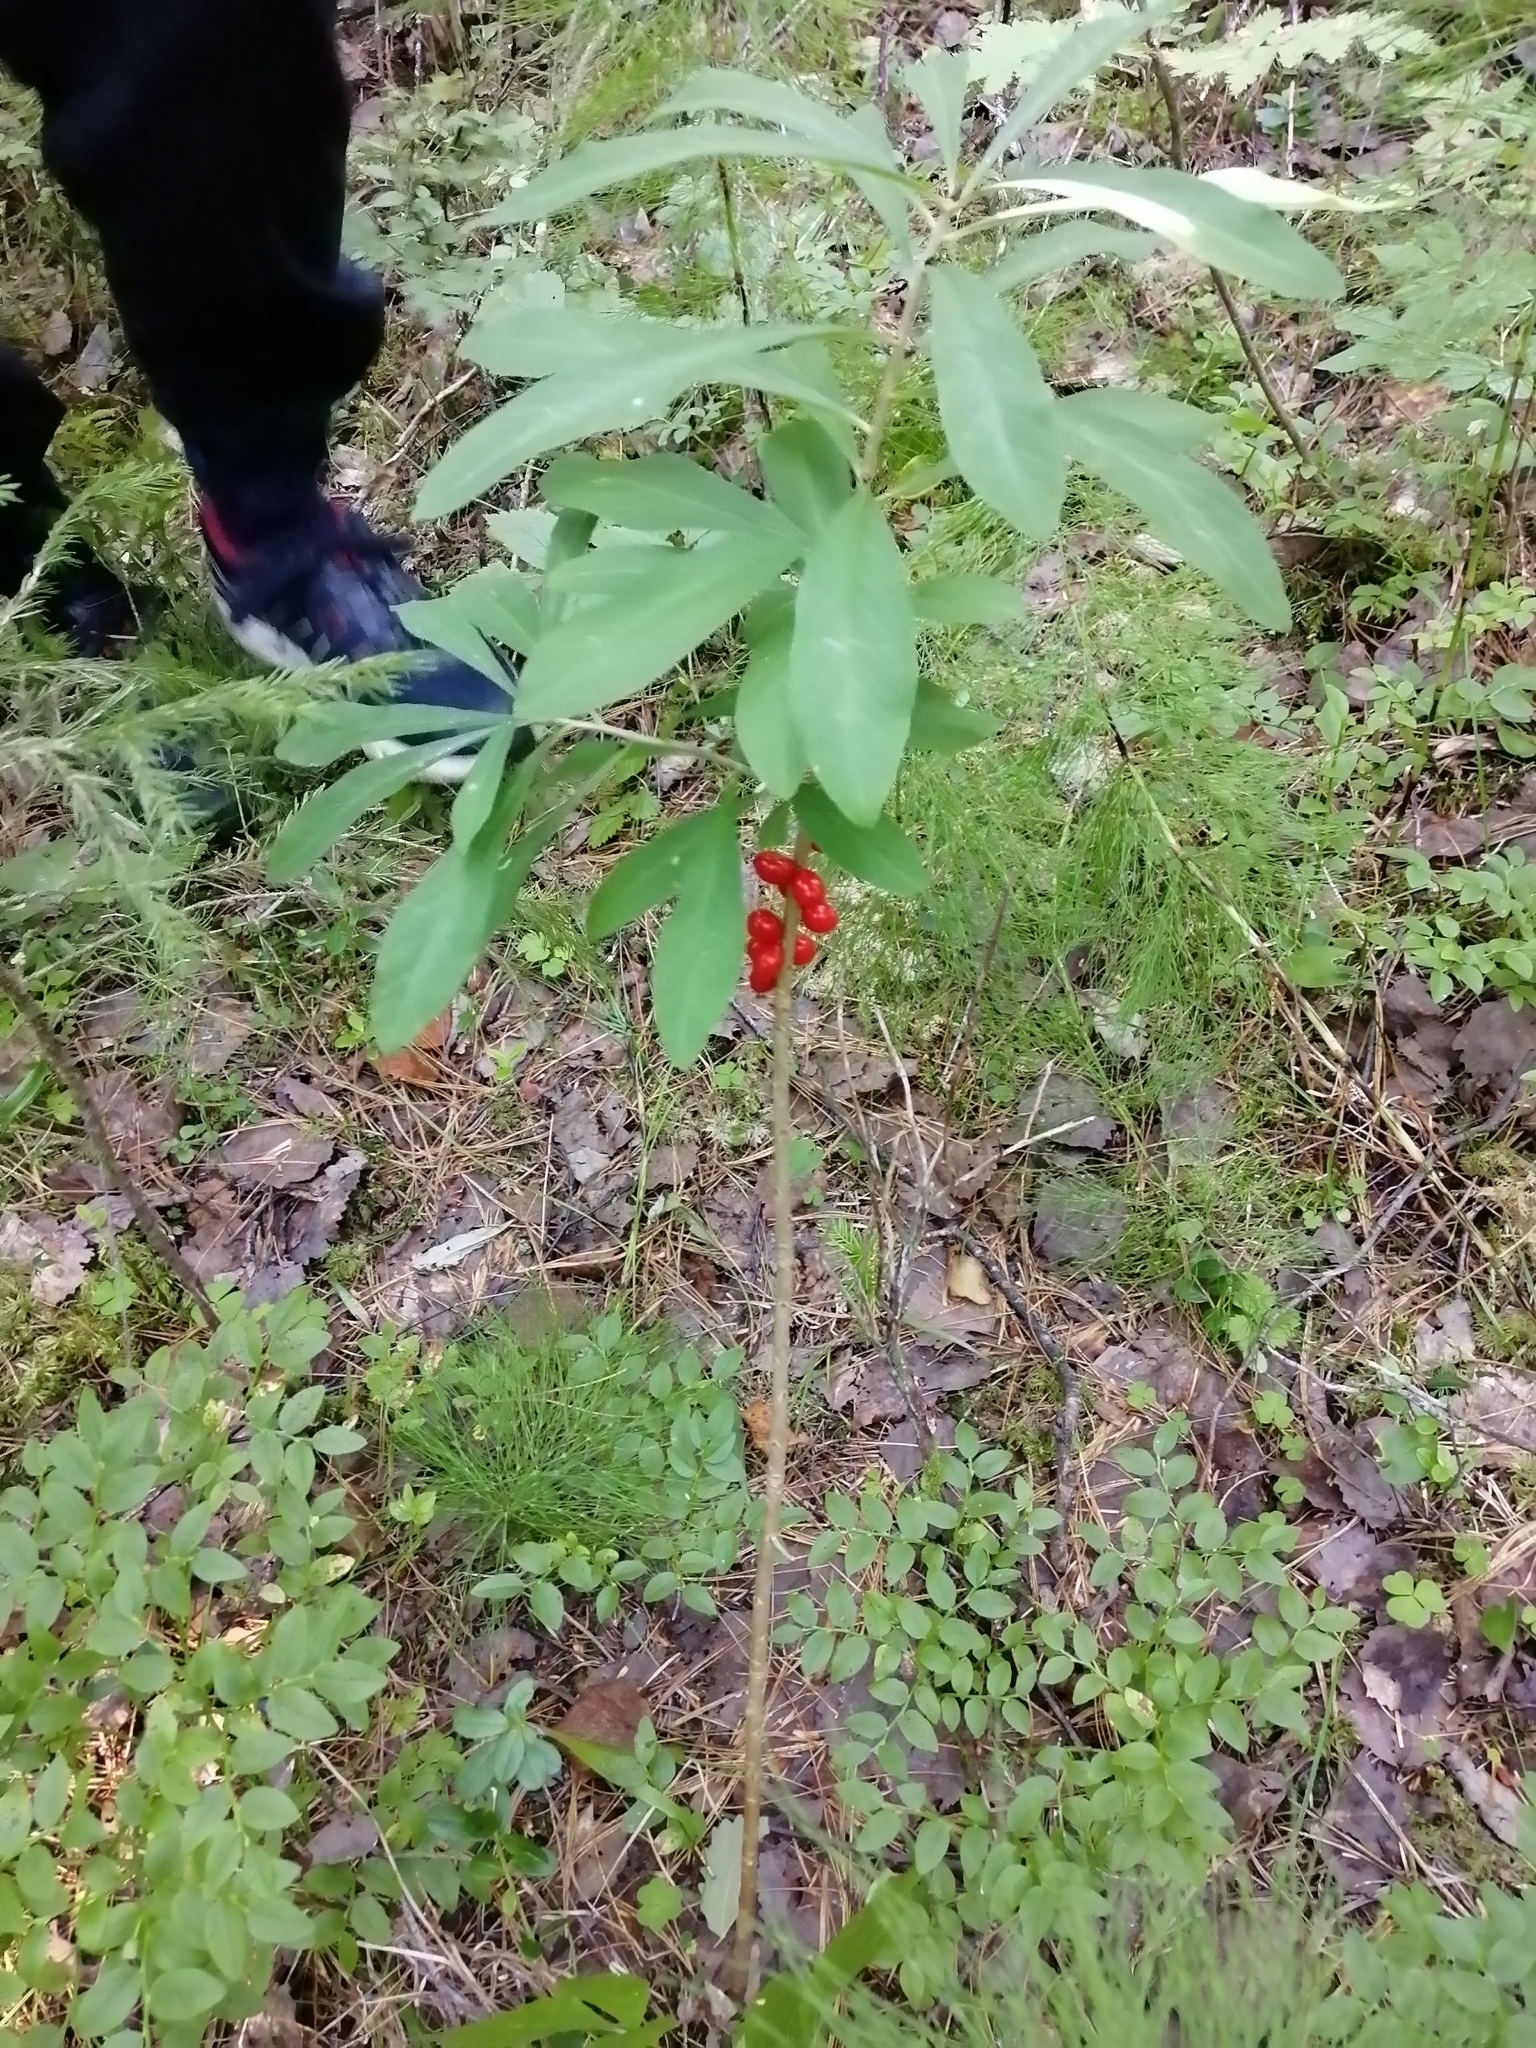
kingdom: Plantae
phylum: Tracheophyta
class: Magnoliopsida
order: Malvales
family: Thymelaeaceae
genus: Daphne
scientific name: Daphne mezereum
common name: Mezereon
